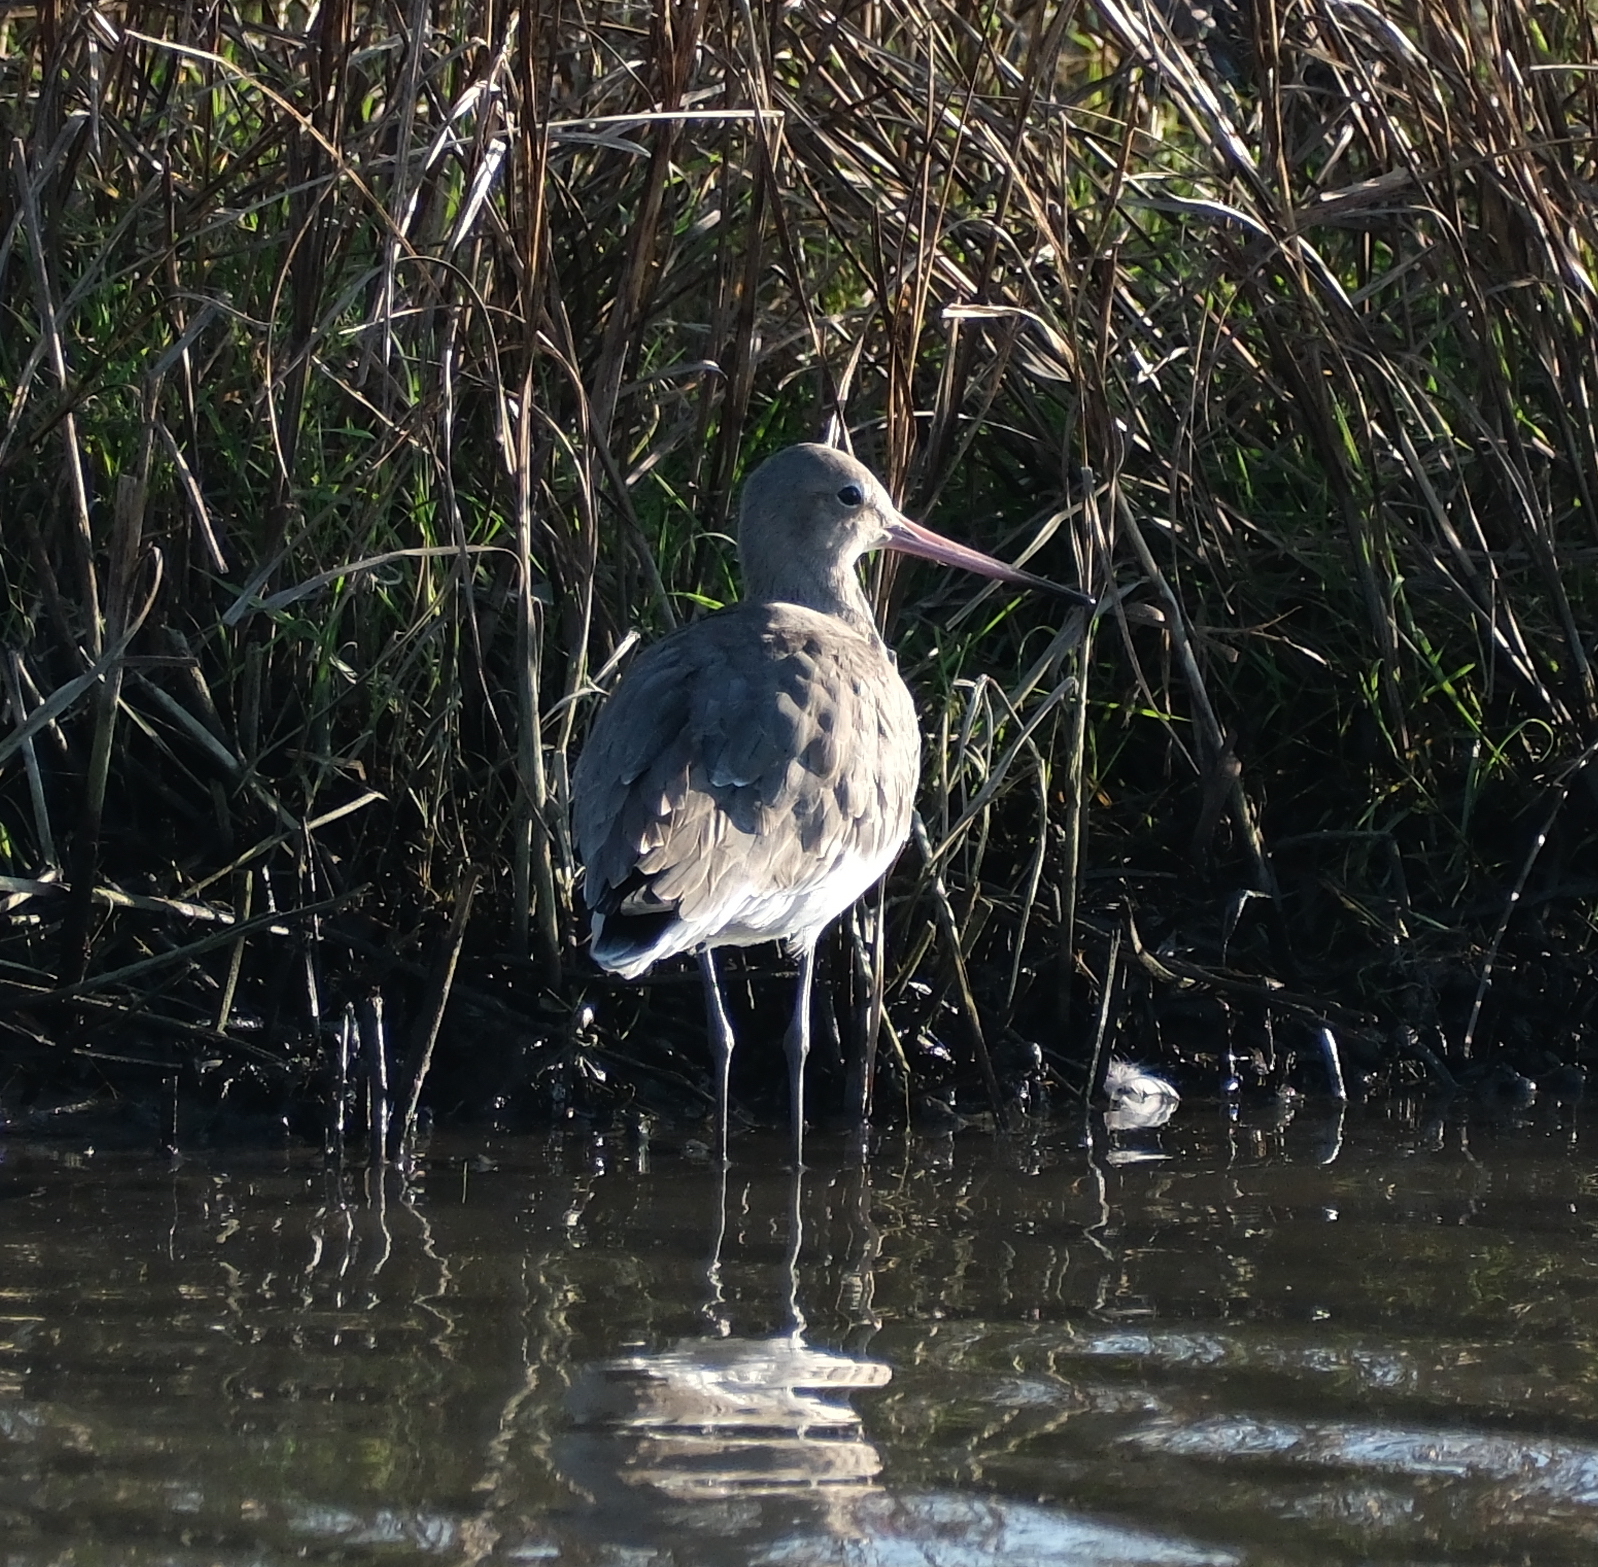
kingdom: Animalia
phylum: Chordata
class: Aves
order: Charadriiformes
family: Scolopacidae
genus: Limosa
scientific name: Limosa limosa
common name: Black-tailed godwit
